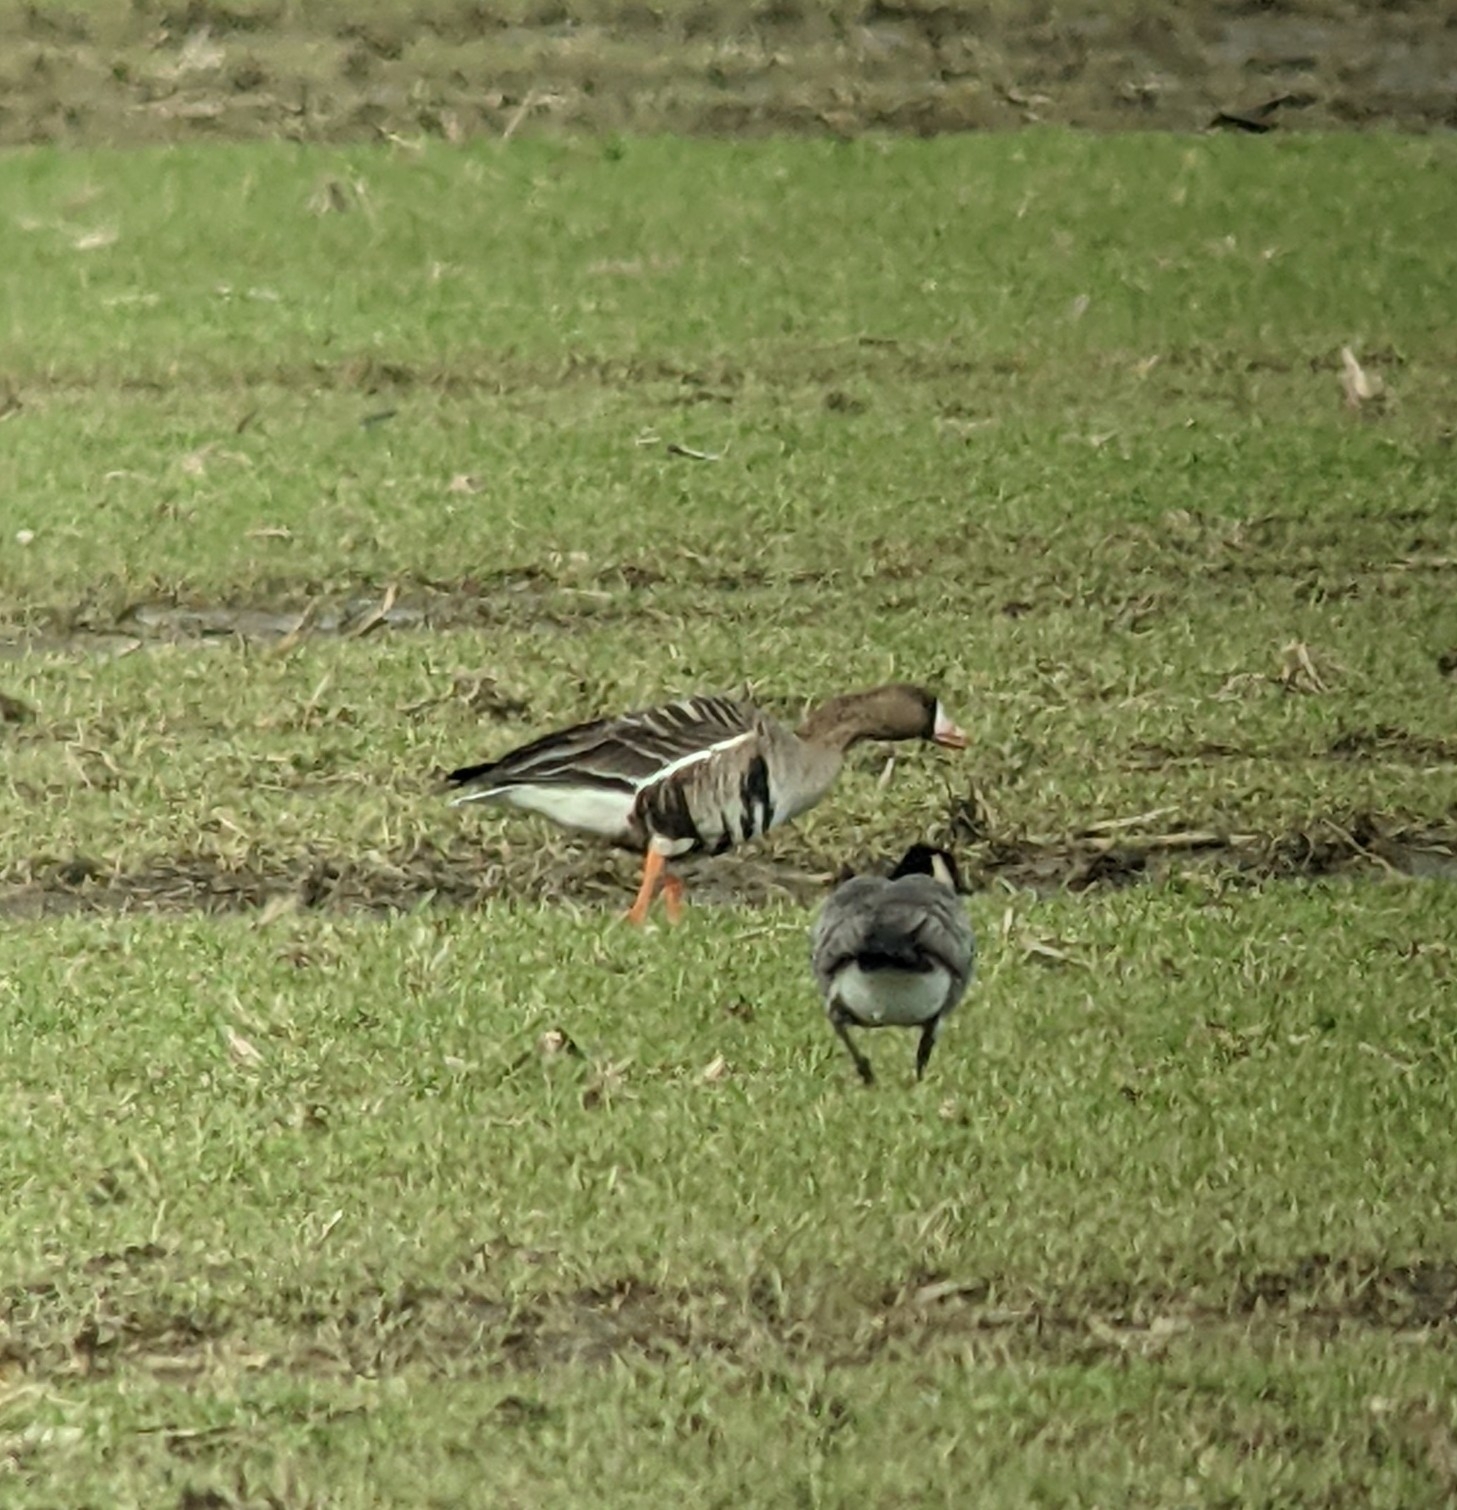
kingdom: Animalia
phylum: Chordata
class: Aves
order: Anseriformes
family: Anatidae
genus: Anser
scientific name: Anser albifrons
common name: Greater white-fronted goose
